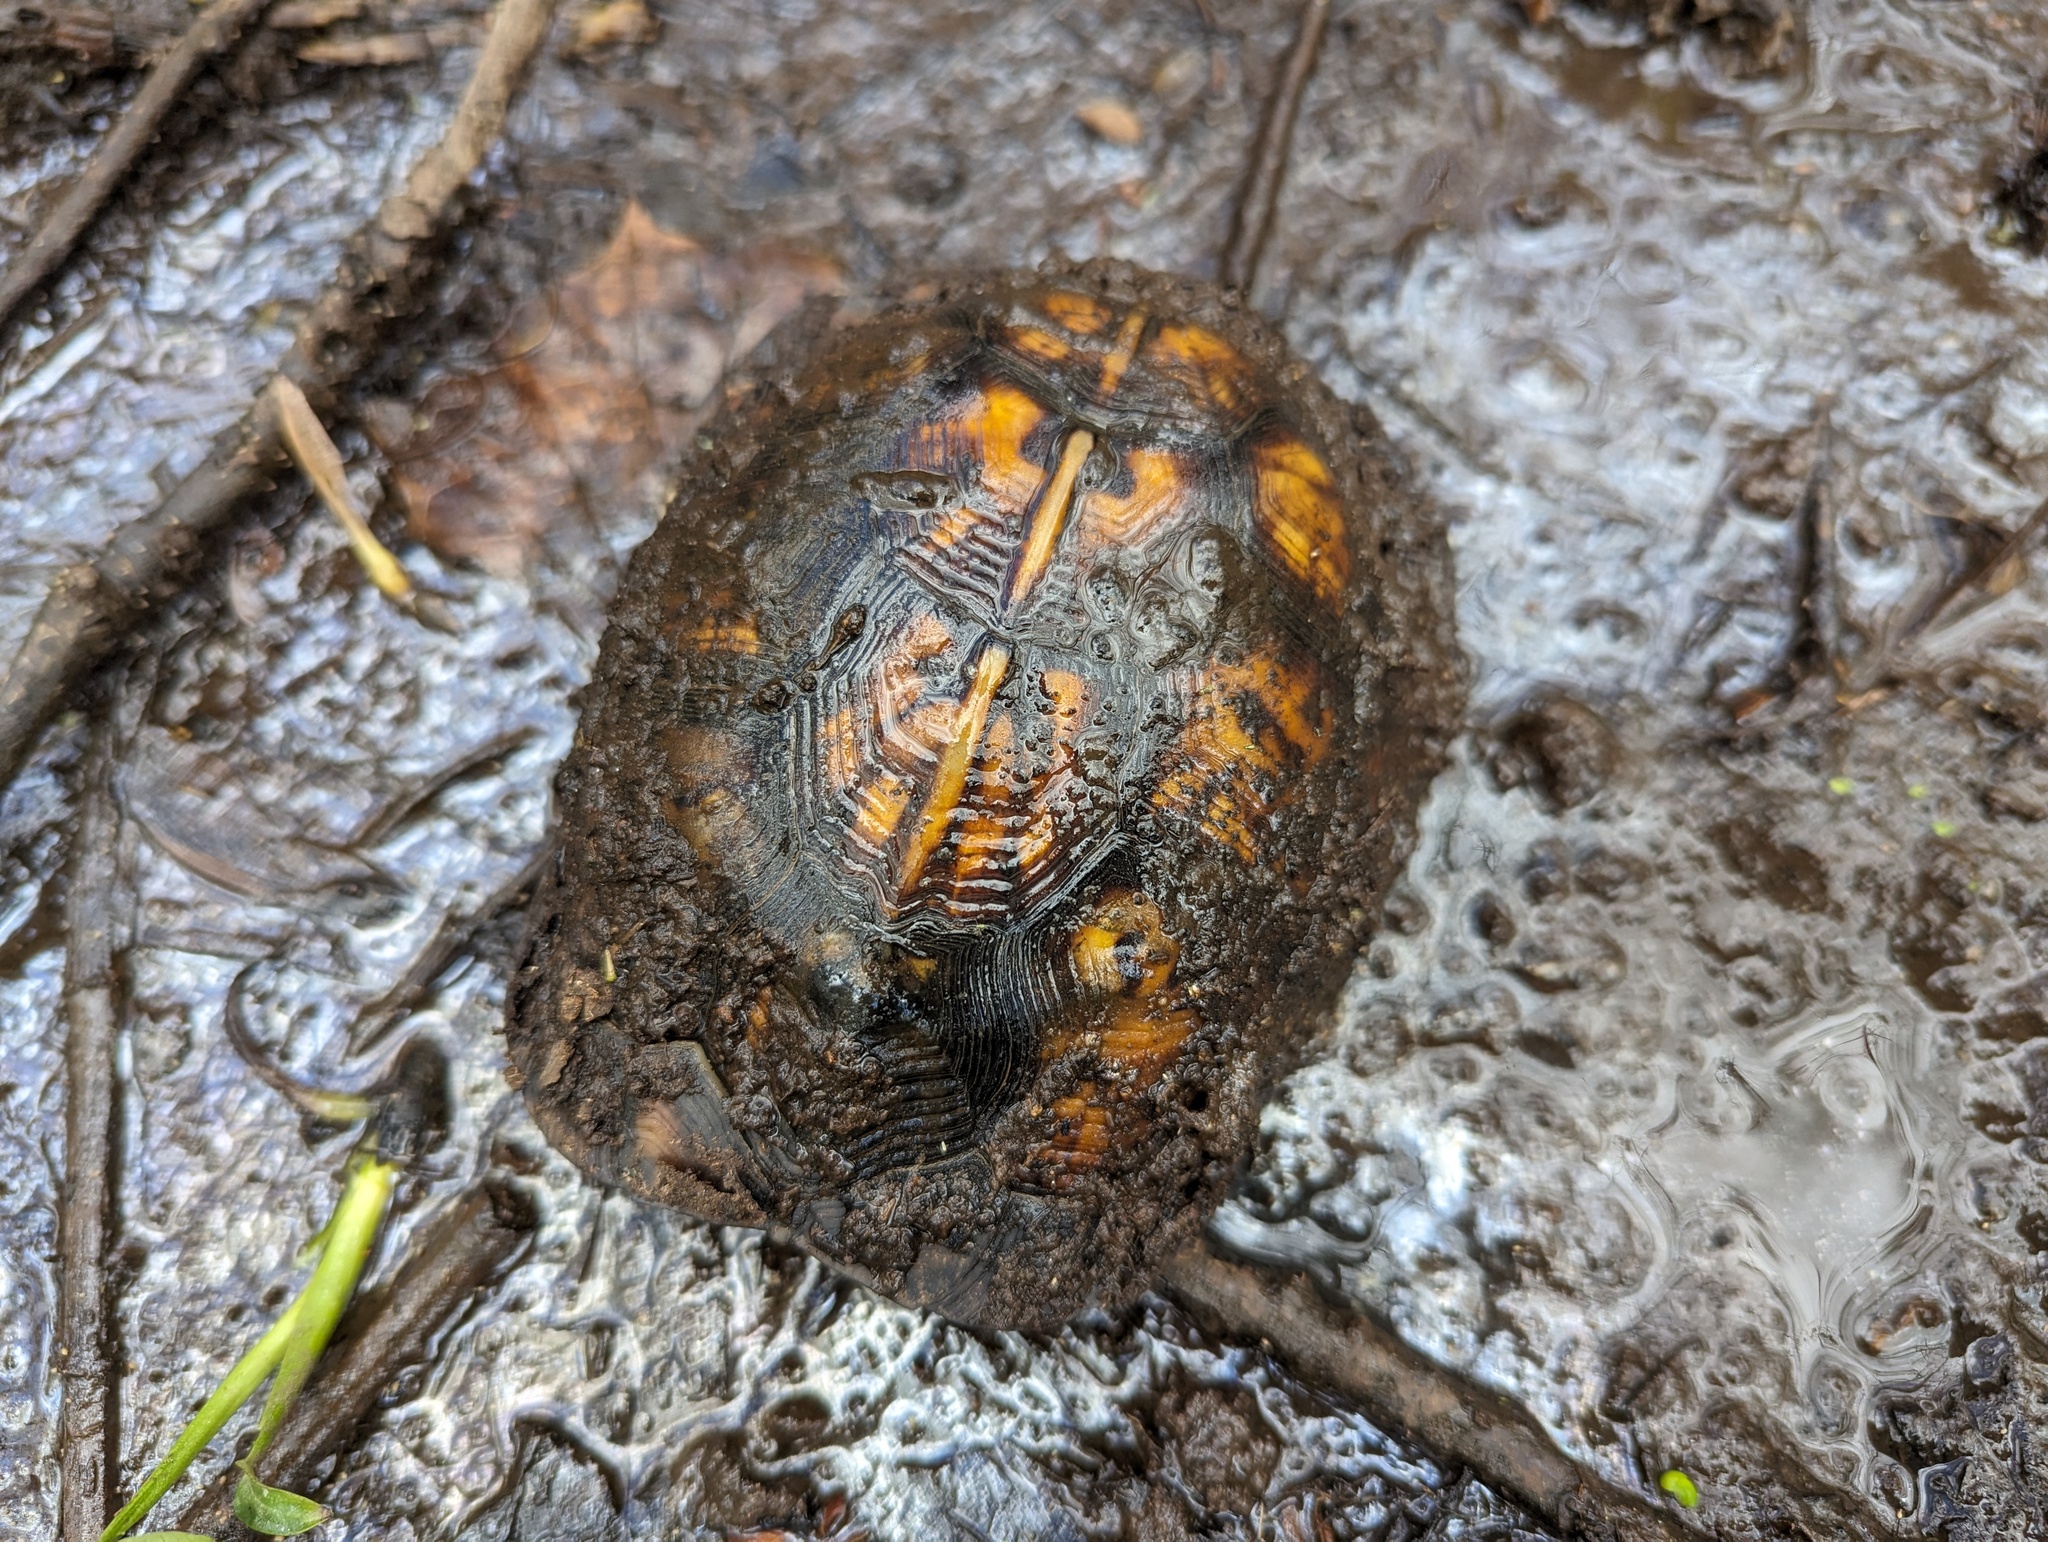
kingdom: Animalia
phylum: Chordata
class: Testudines
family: Emydidae
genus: Terrapene
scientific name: Terrapene carolina
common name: Common box turtle
